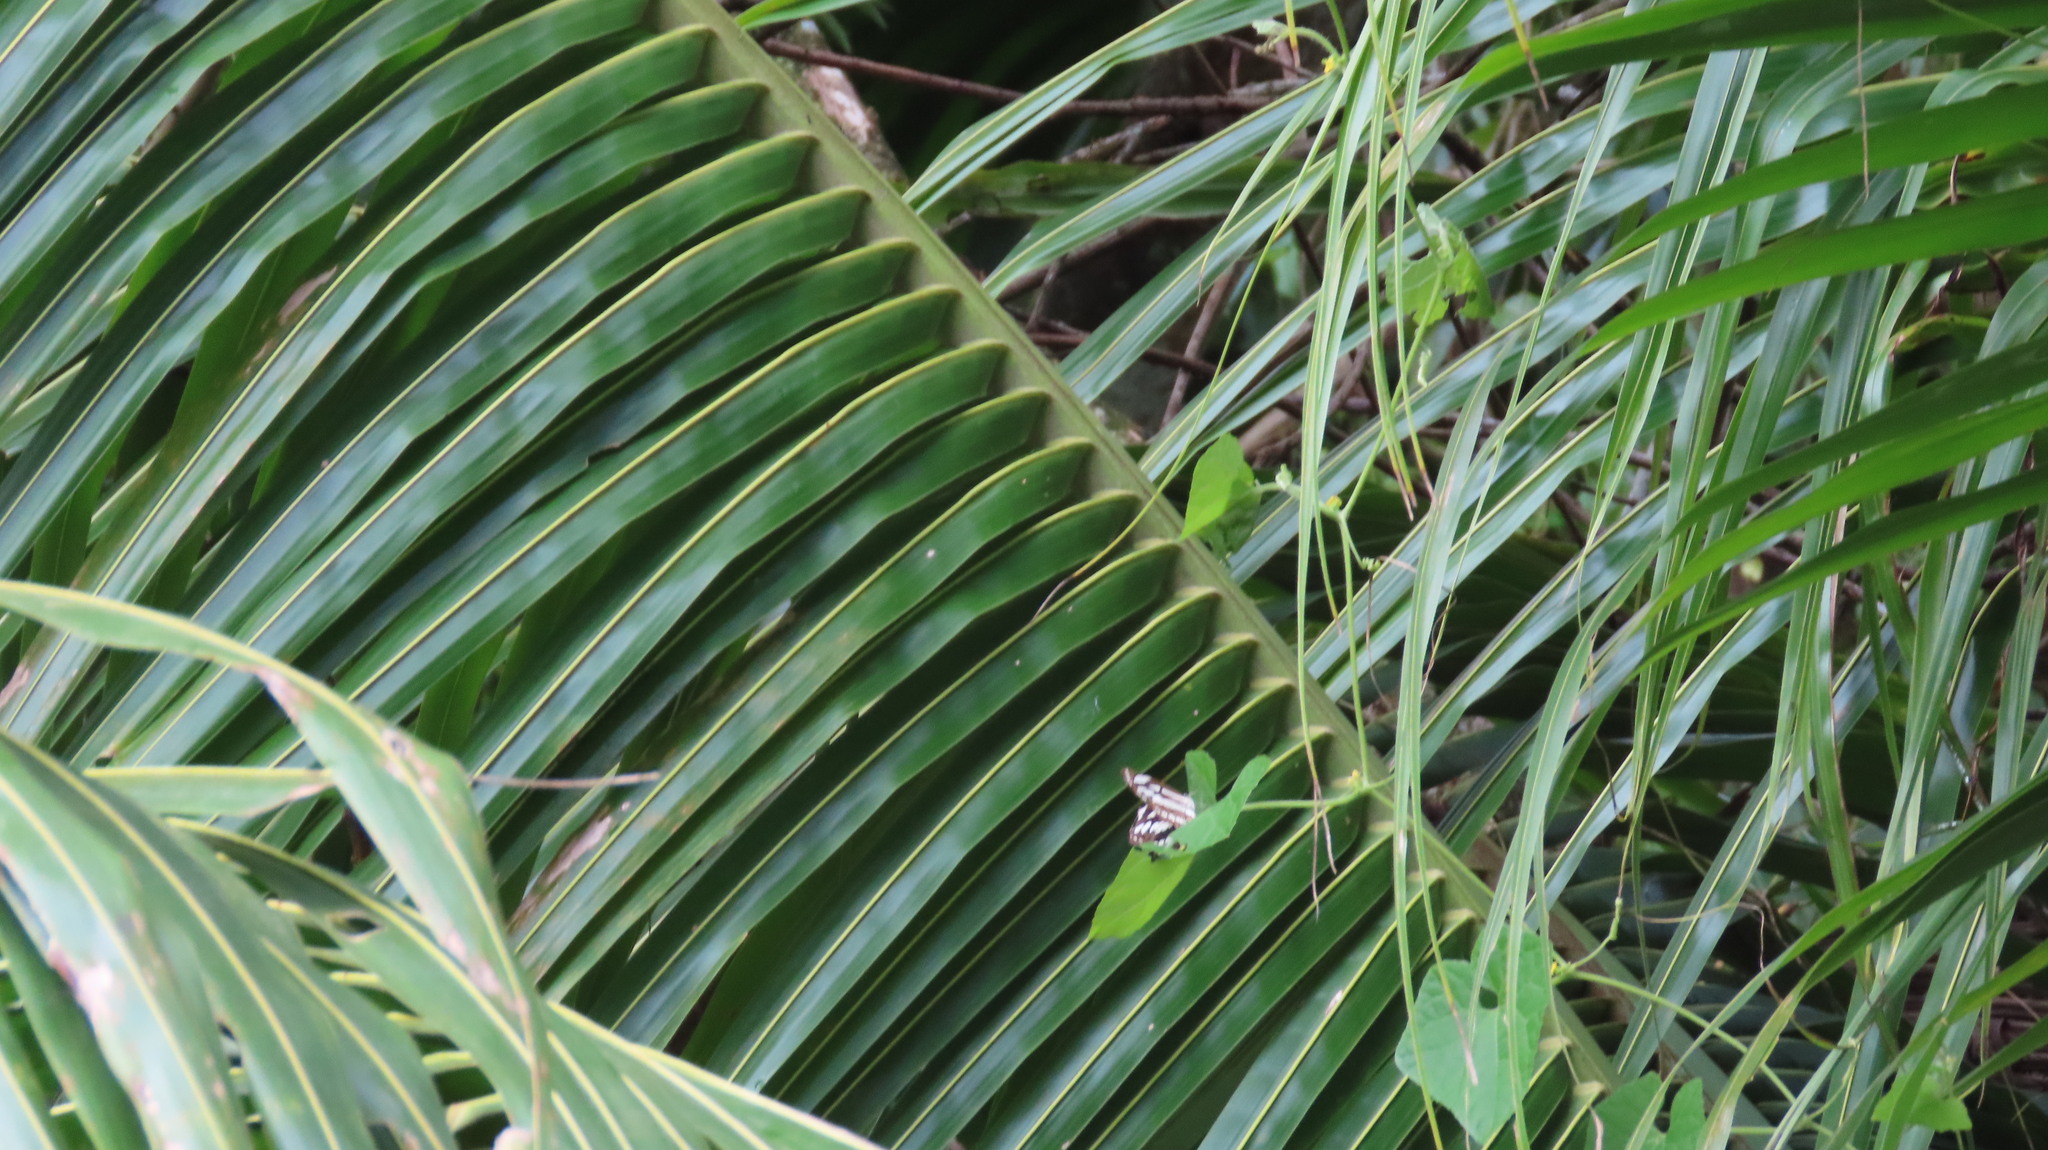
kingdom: Animalia
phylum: Arthropoda
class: Insecta
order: Lepidoptera
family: Nymphalidae
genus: Neptis
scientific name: Neptis hylas
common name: Common sailer
